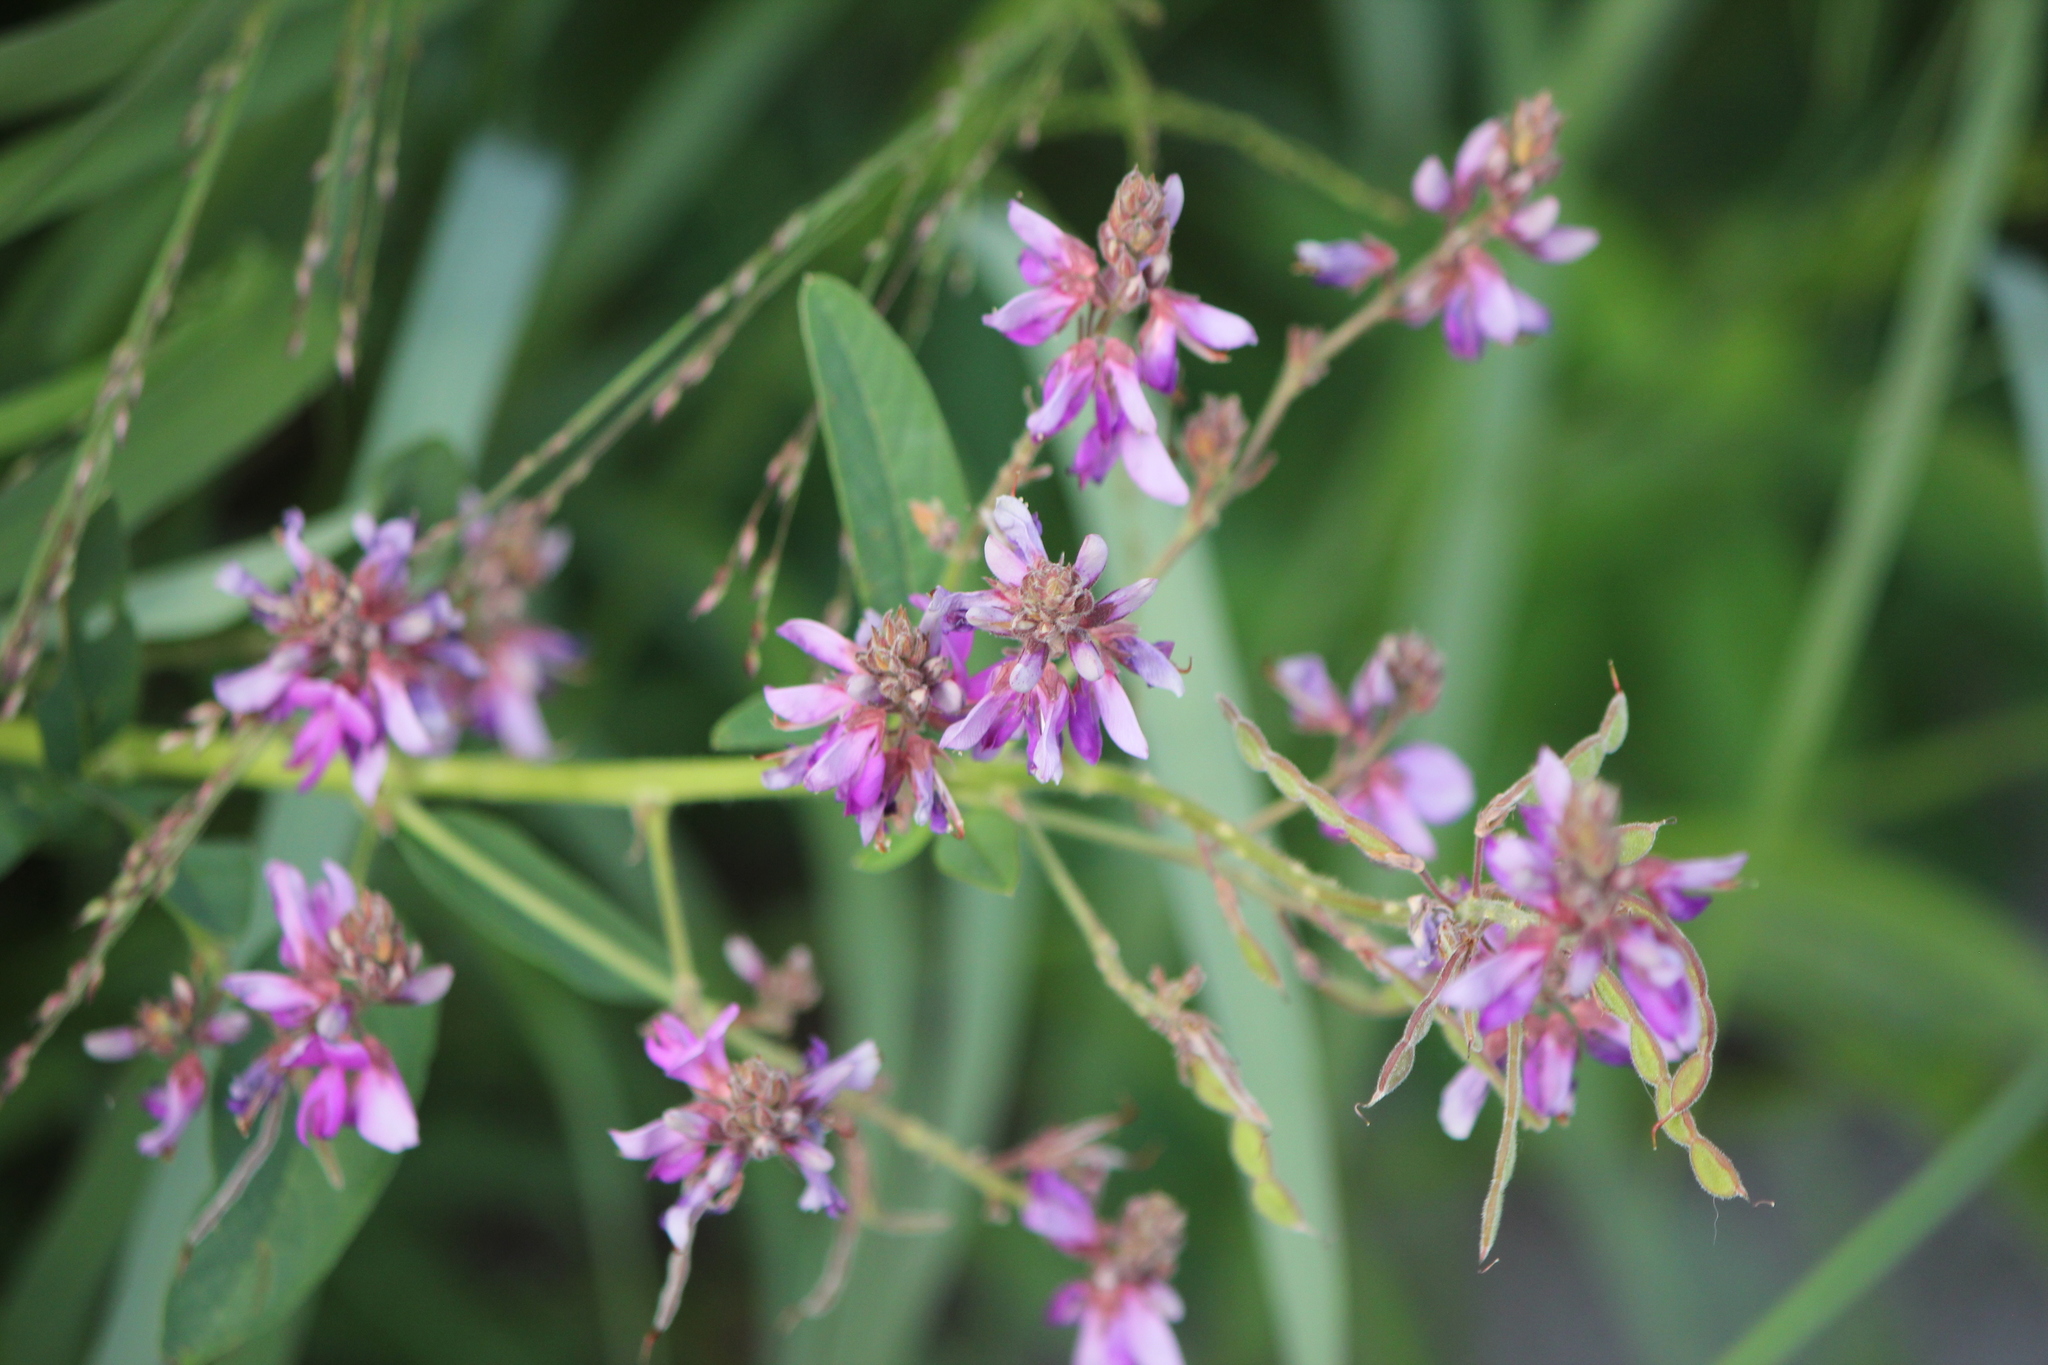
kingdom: Plantae
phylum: Tracheophyta
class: Magnoliopsida
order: Fabales
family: Fabaceae
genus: Desmodium
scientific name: Desmodium canadense
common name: Canada tick-trefoil
